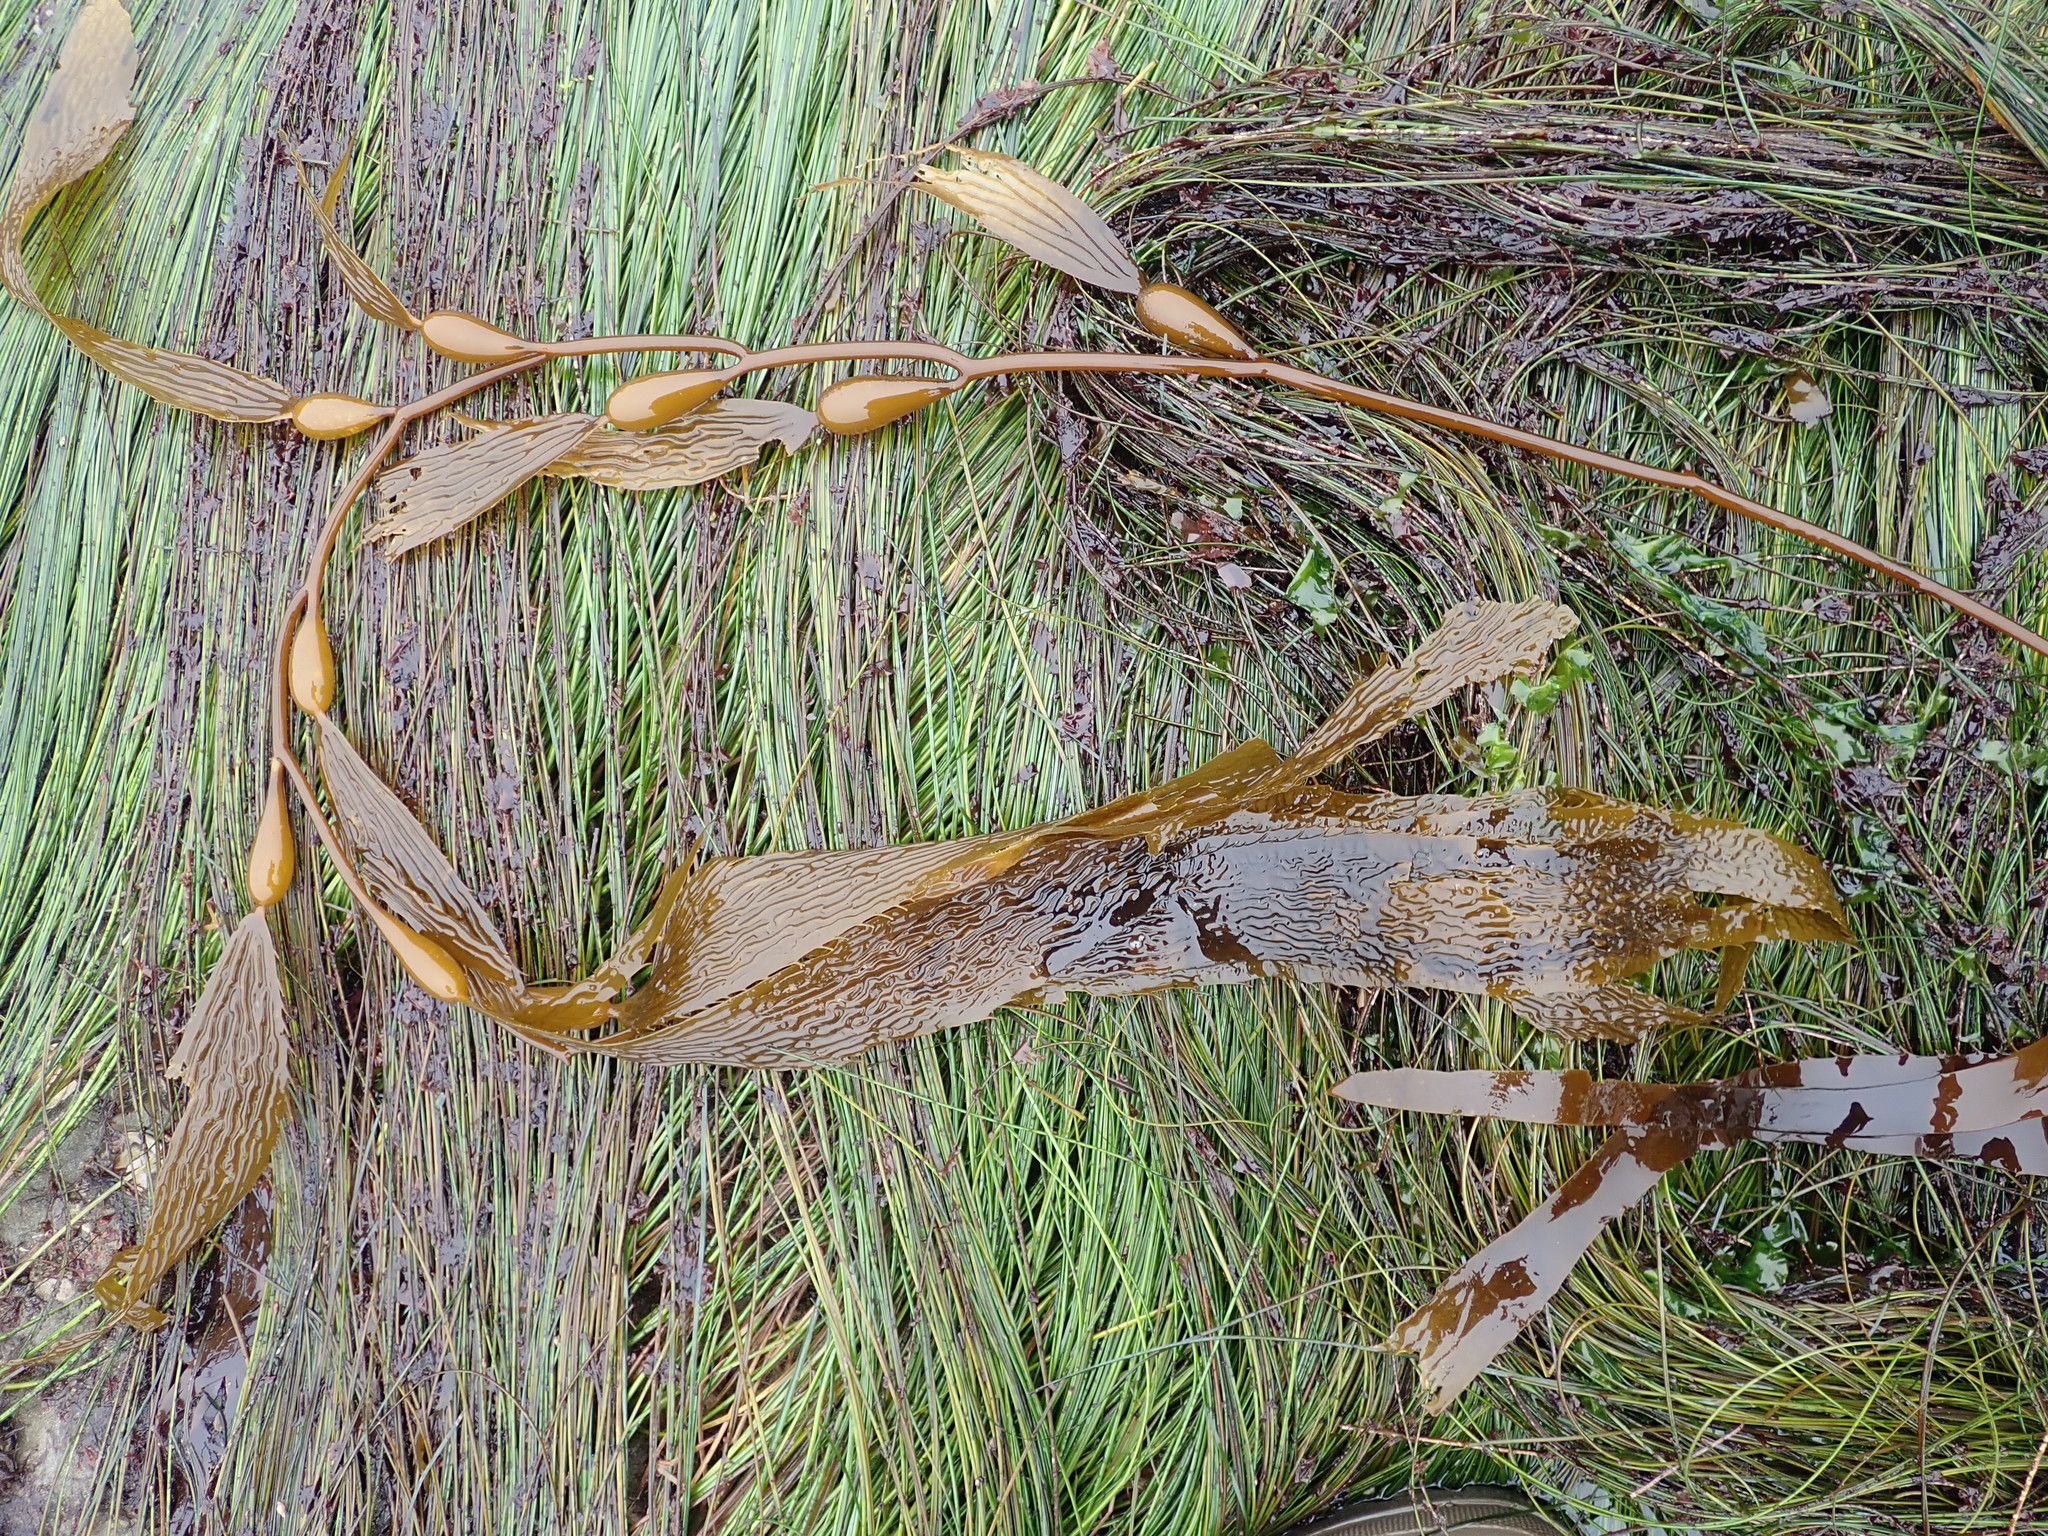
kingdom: Chromista
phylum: Ochrophyta
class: Phaeophyceae
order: Laminariales
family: Laminariaceae
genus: Macrocystis
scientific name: Macrocystis pyrifera
